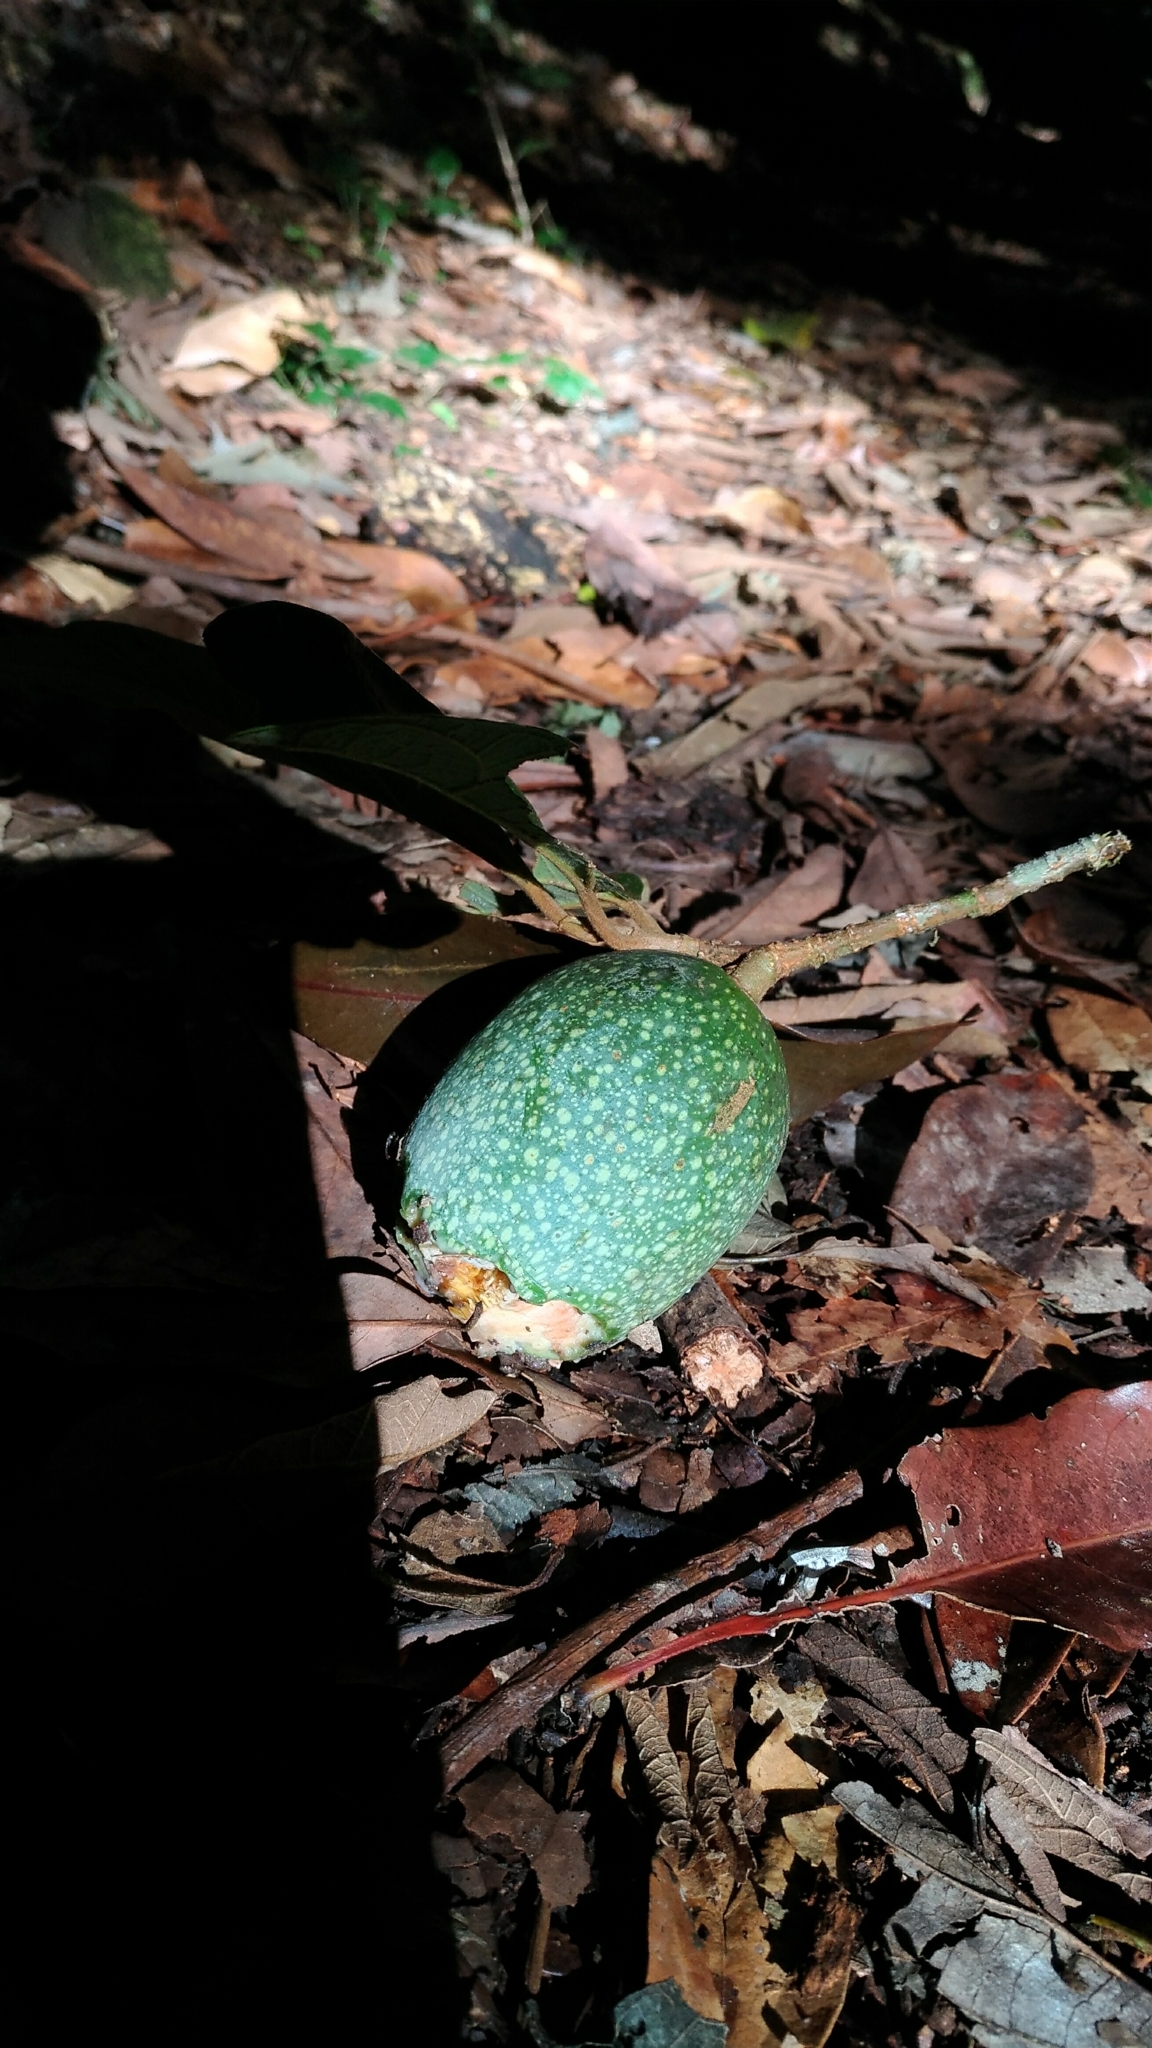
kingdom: Plantae
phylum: Tracheophyta
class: Magnoliopsida
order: Rosales
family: Moraceae
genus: Ficus
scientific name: Ficus pumila
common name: Climbingfig
